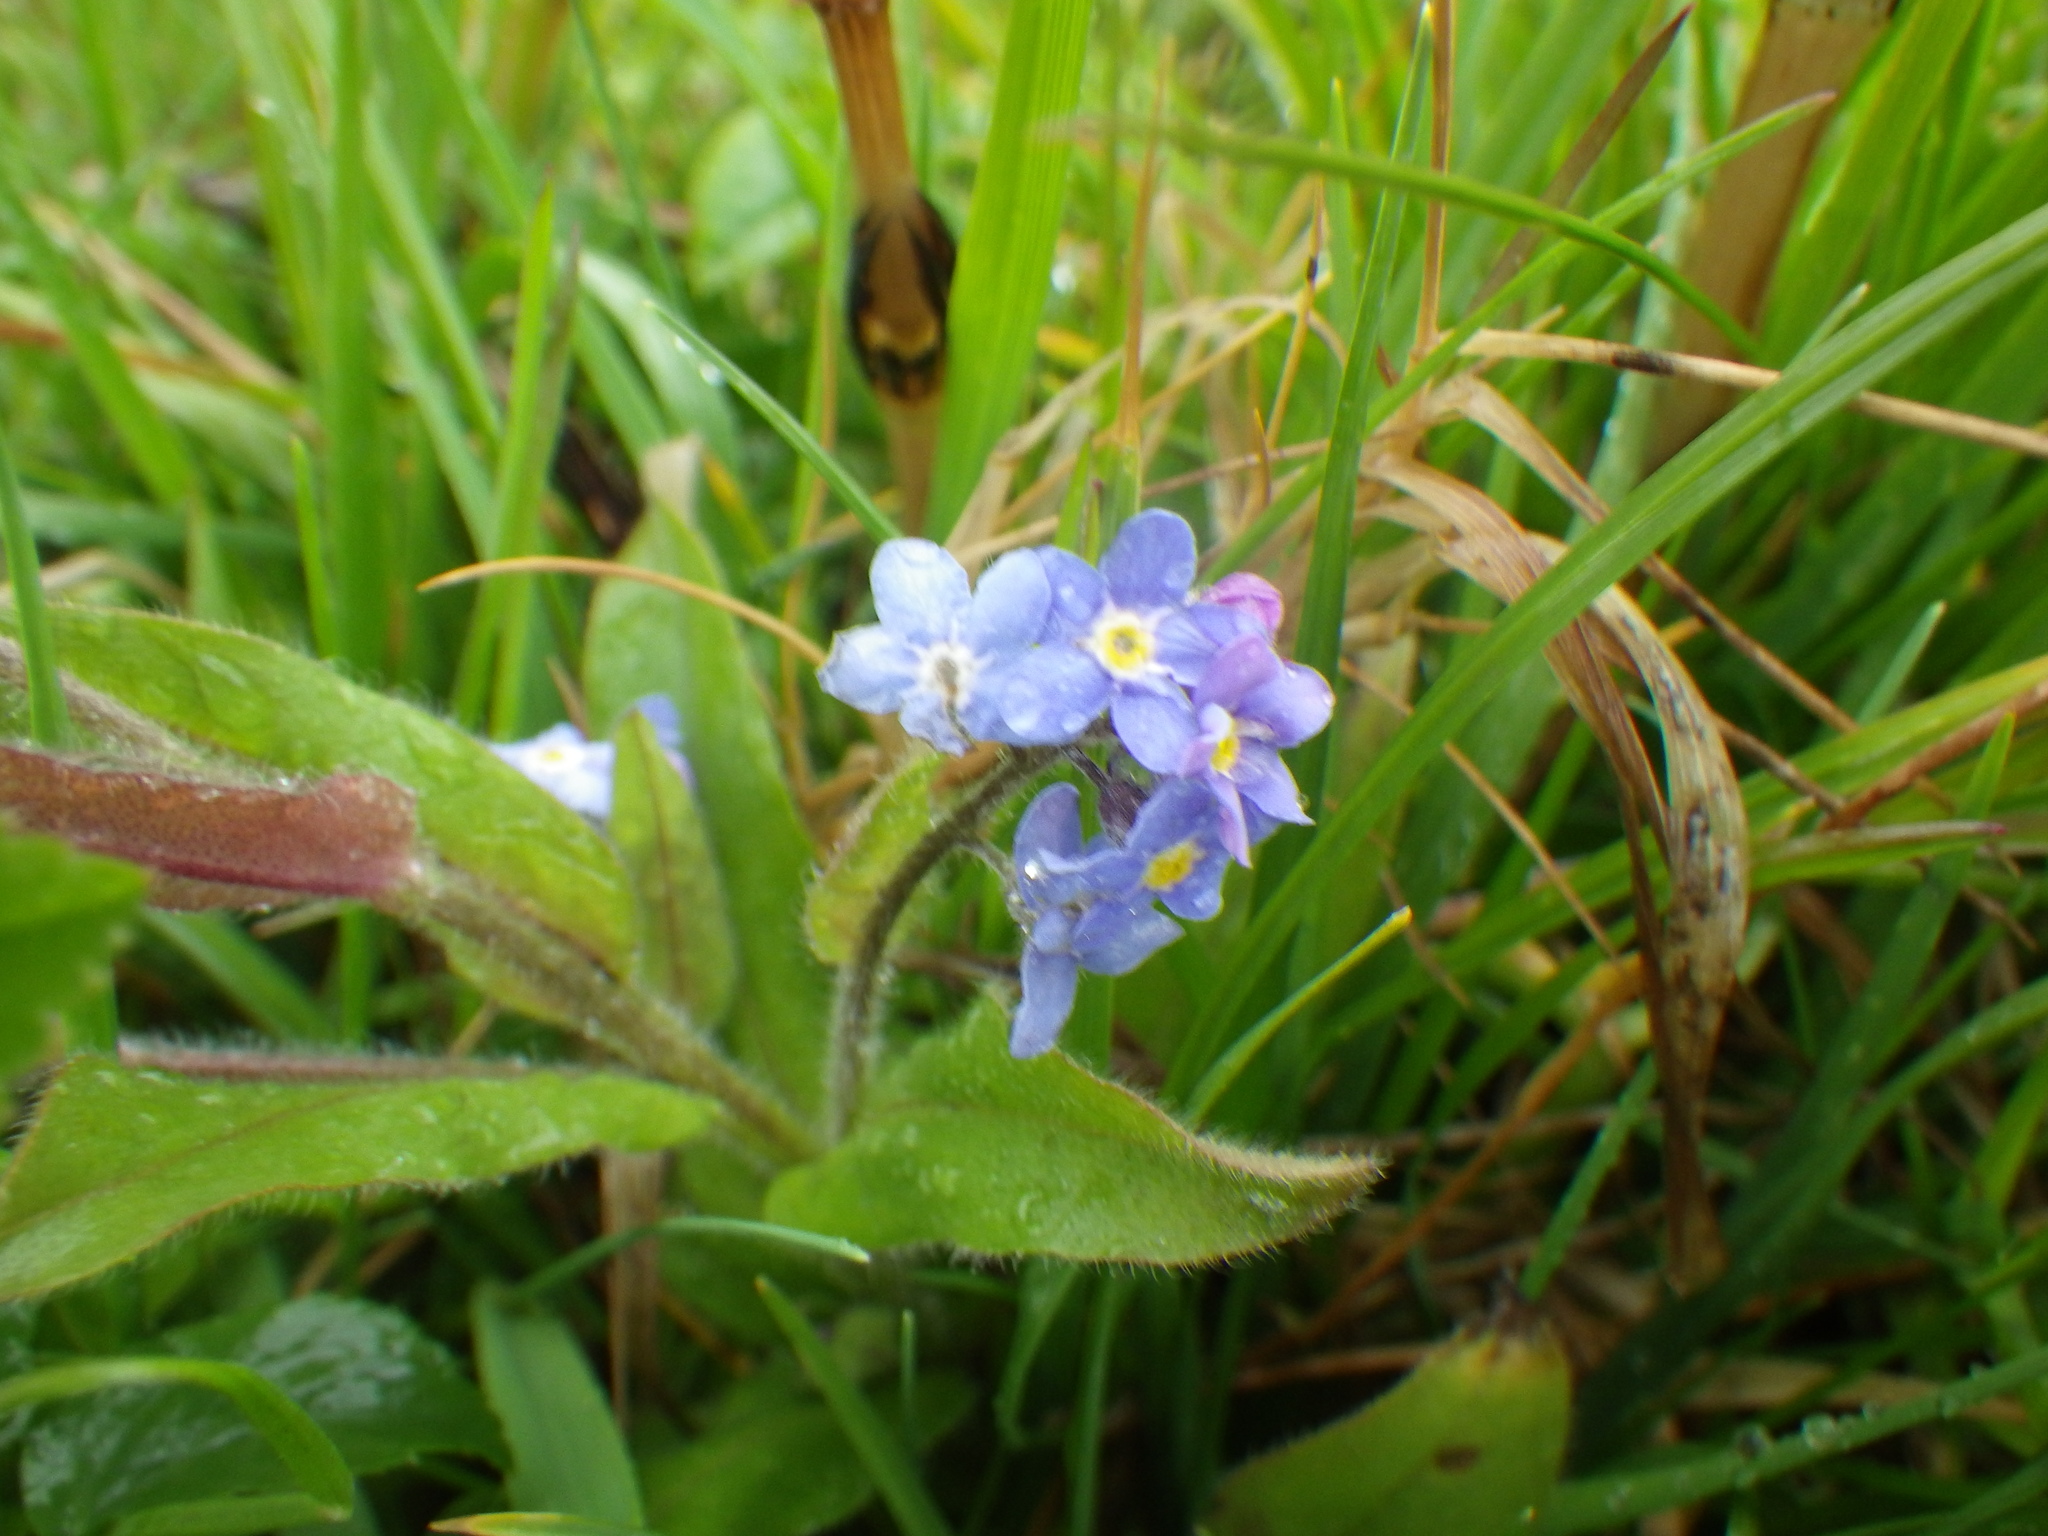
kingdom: Plantae
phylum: Tracheophyta
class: Magnoliopsida
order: Boraginales
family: Boraginaceae
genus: Myosotis
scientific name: Myosotis sylvatica
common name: Wood forget-me-not
